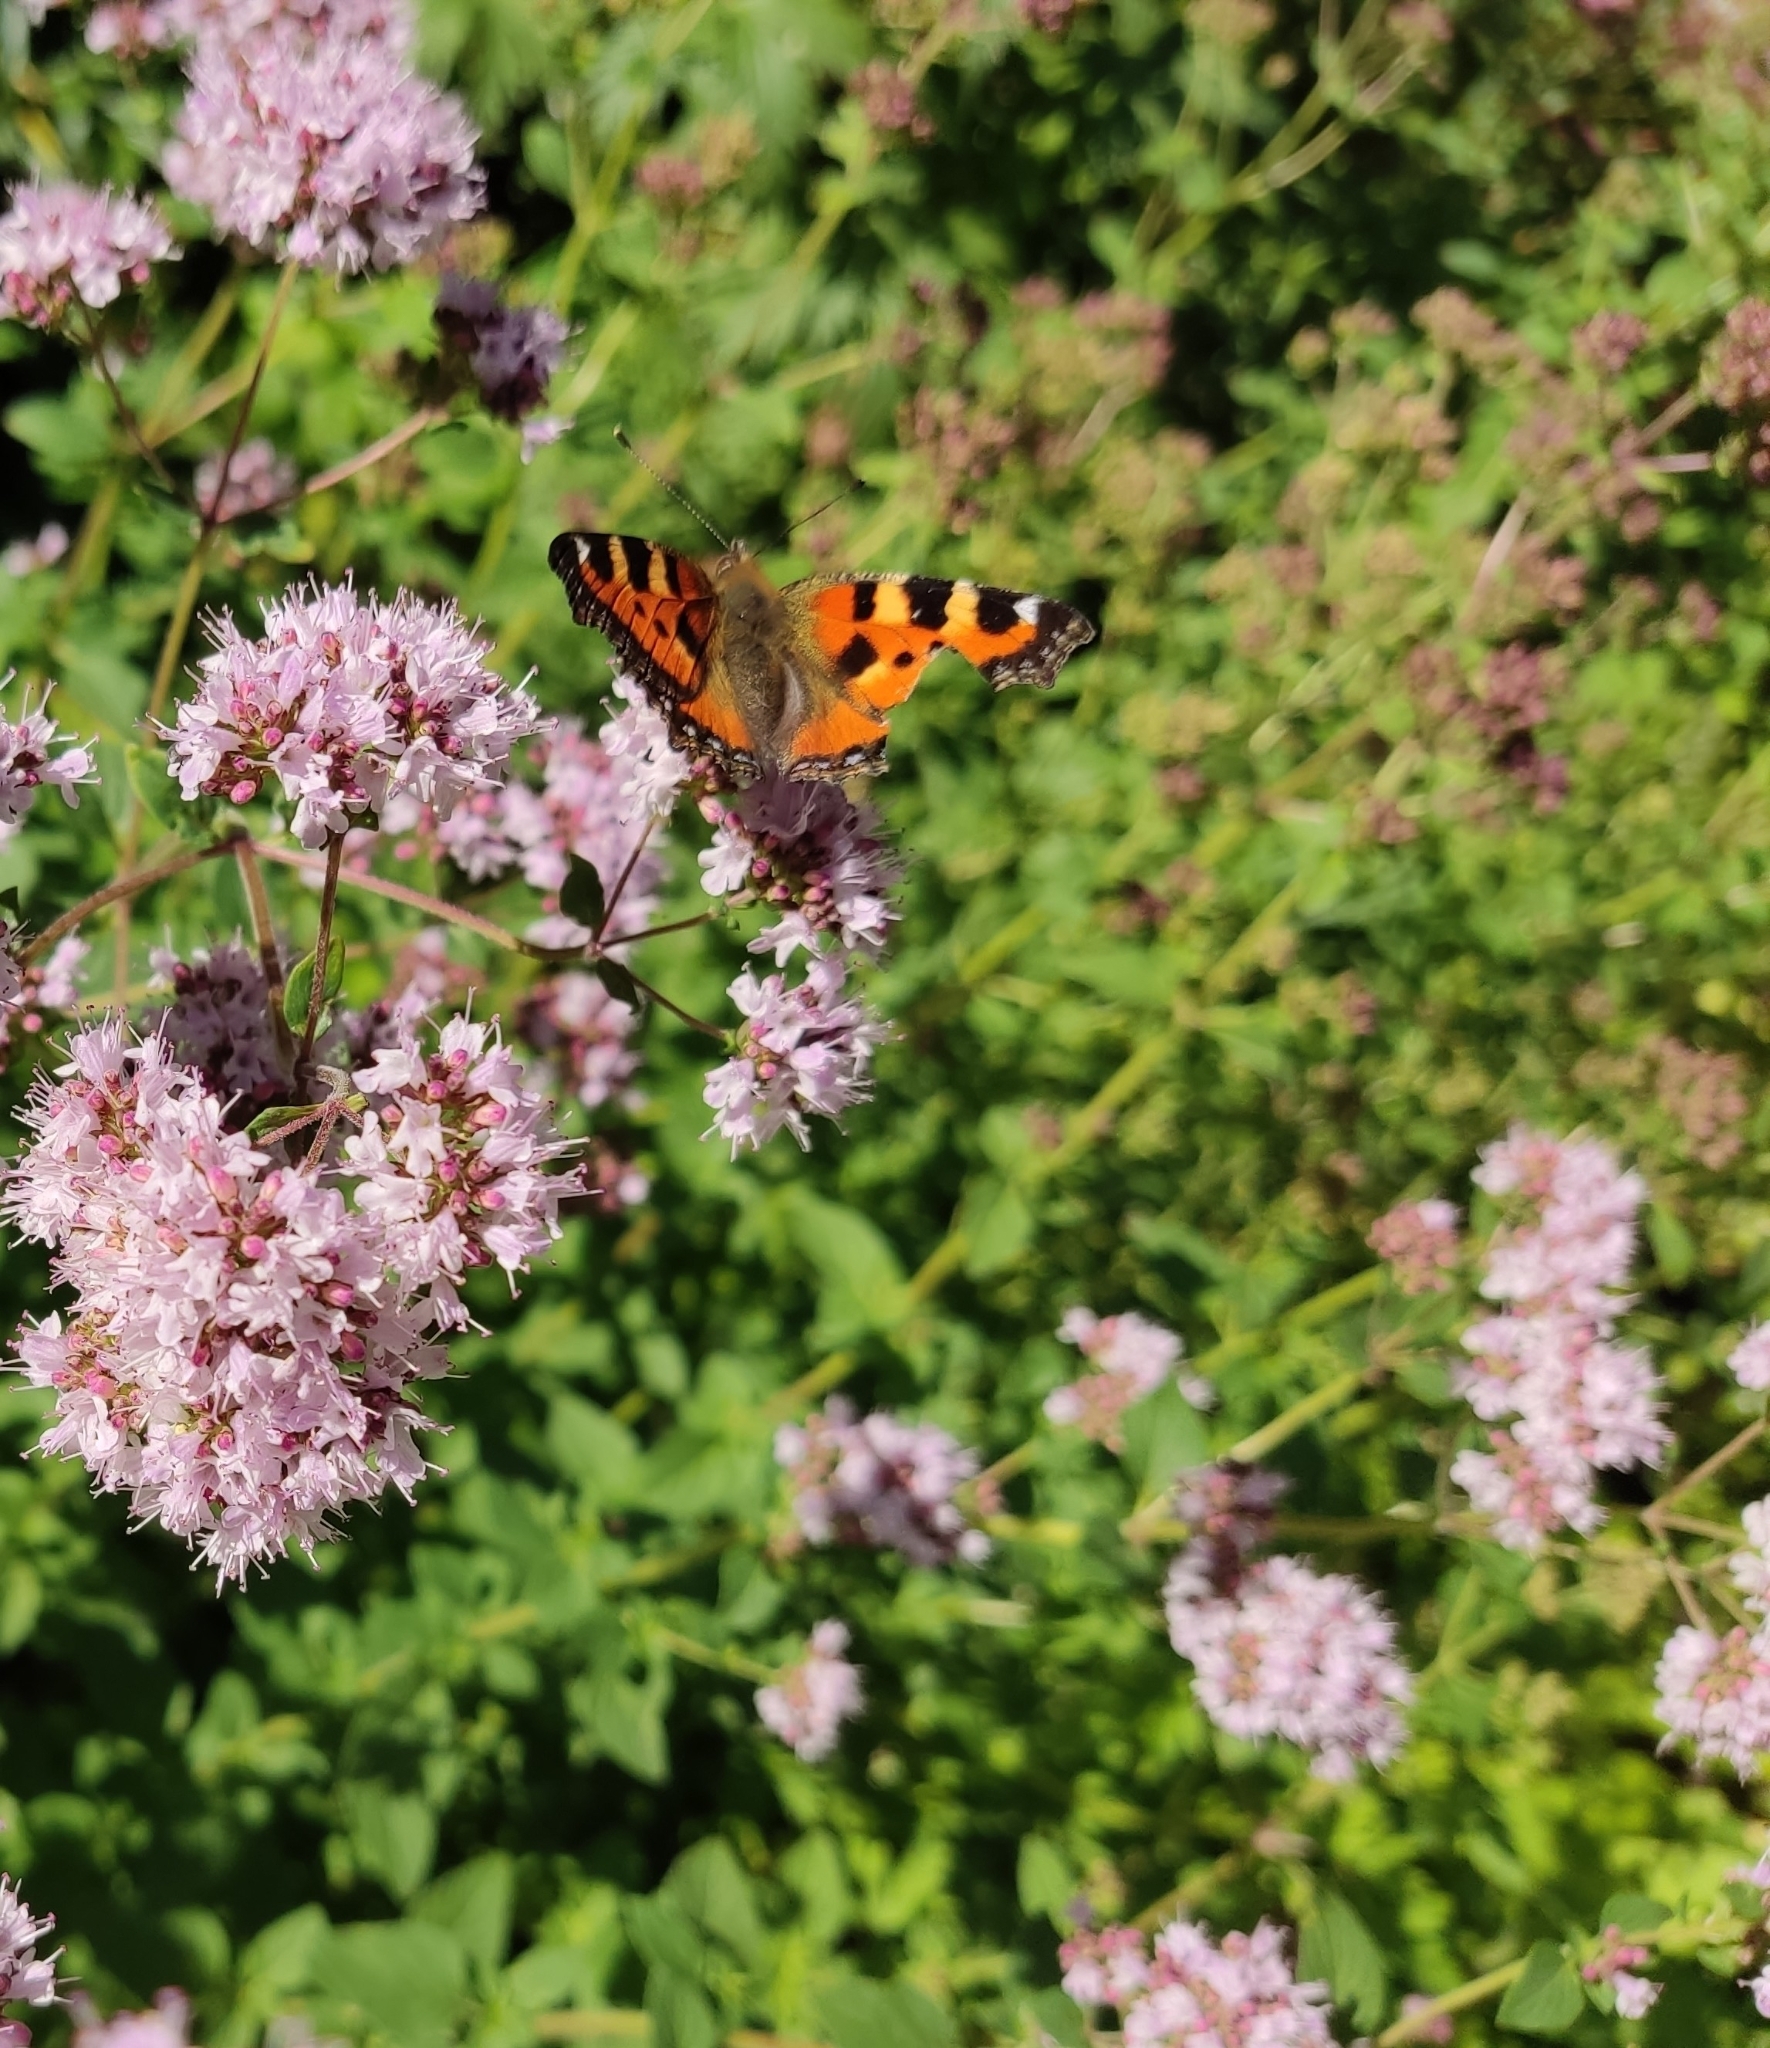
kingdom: Animalia
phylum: Arthropoda
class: Insecta
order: Lepidoptera
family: Nymphalidae
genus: Aglais
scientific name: Aglais urticae
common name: Small tortoiseshell
